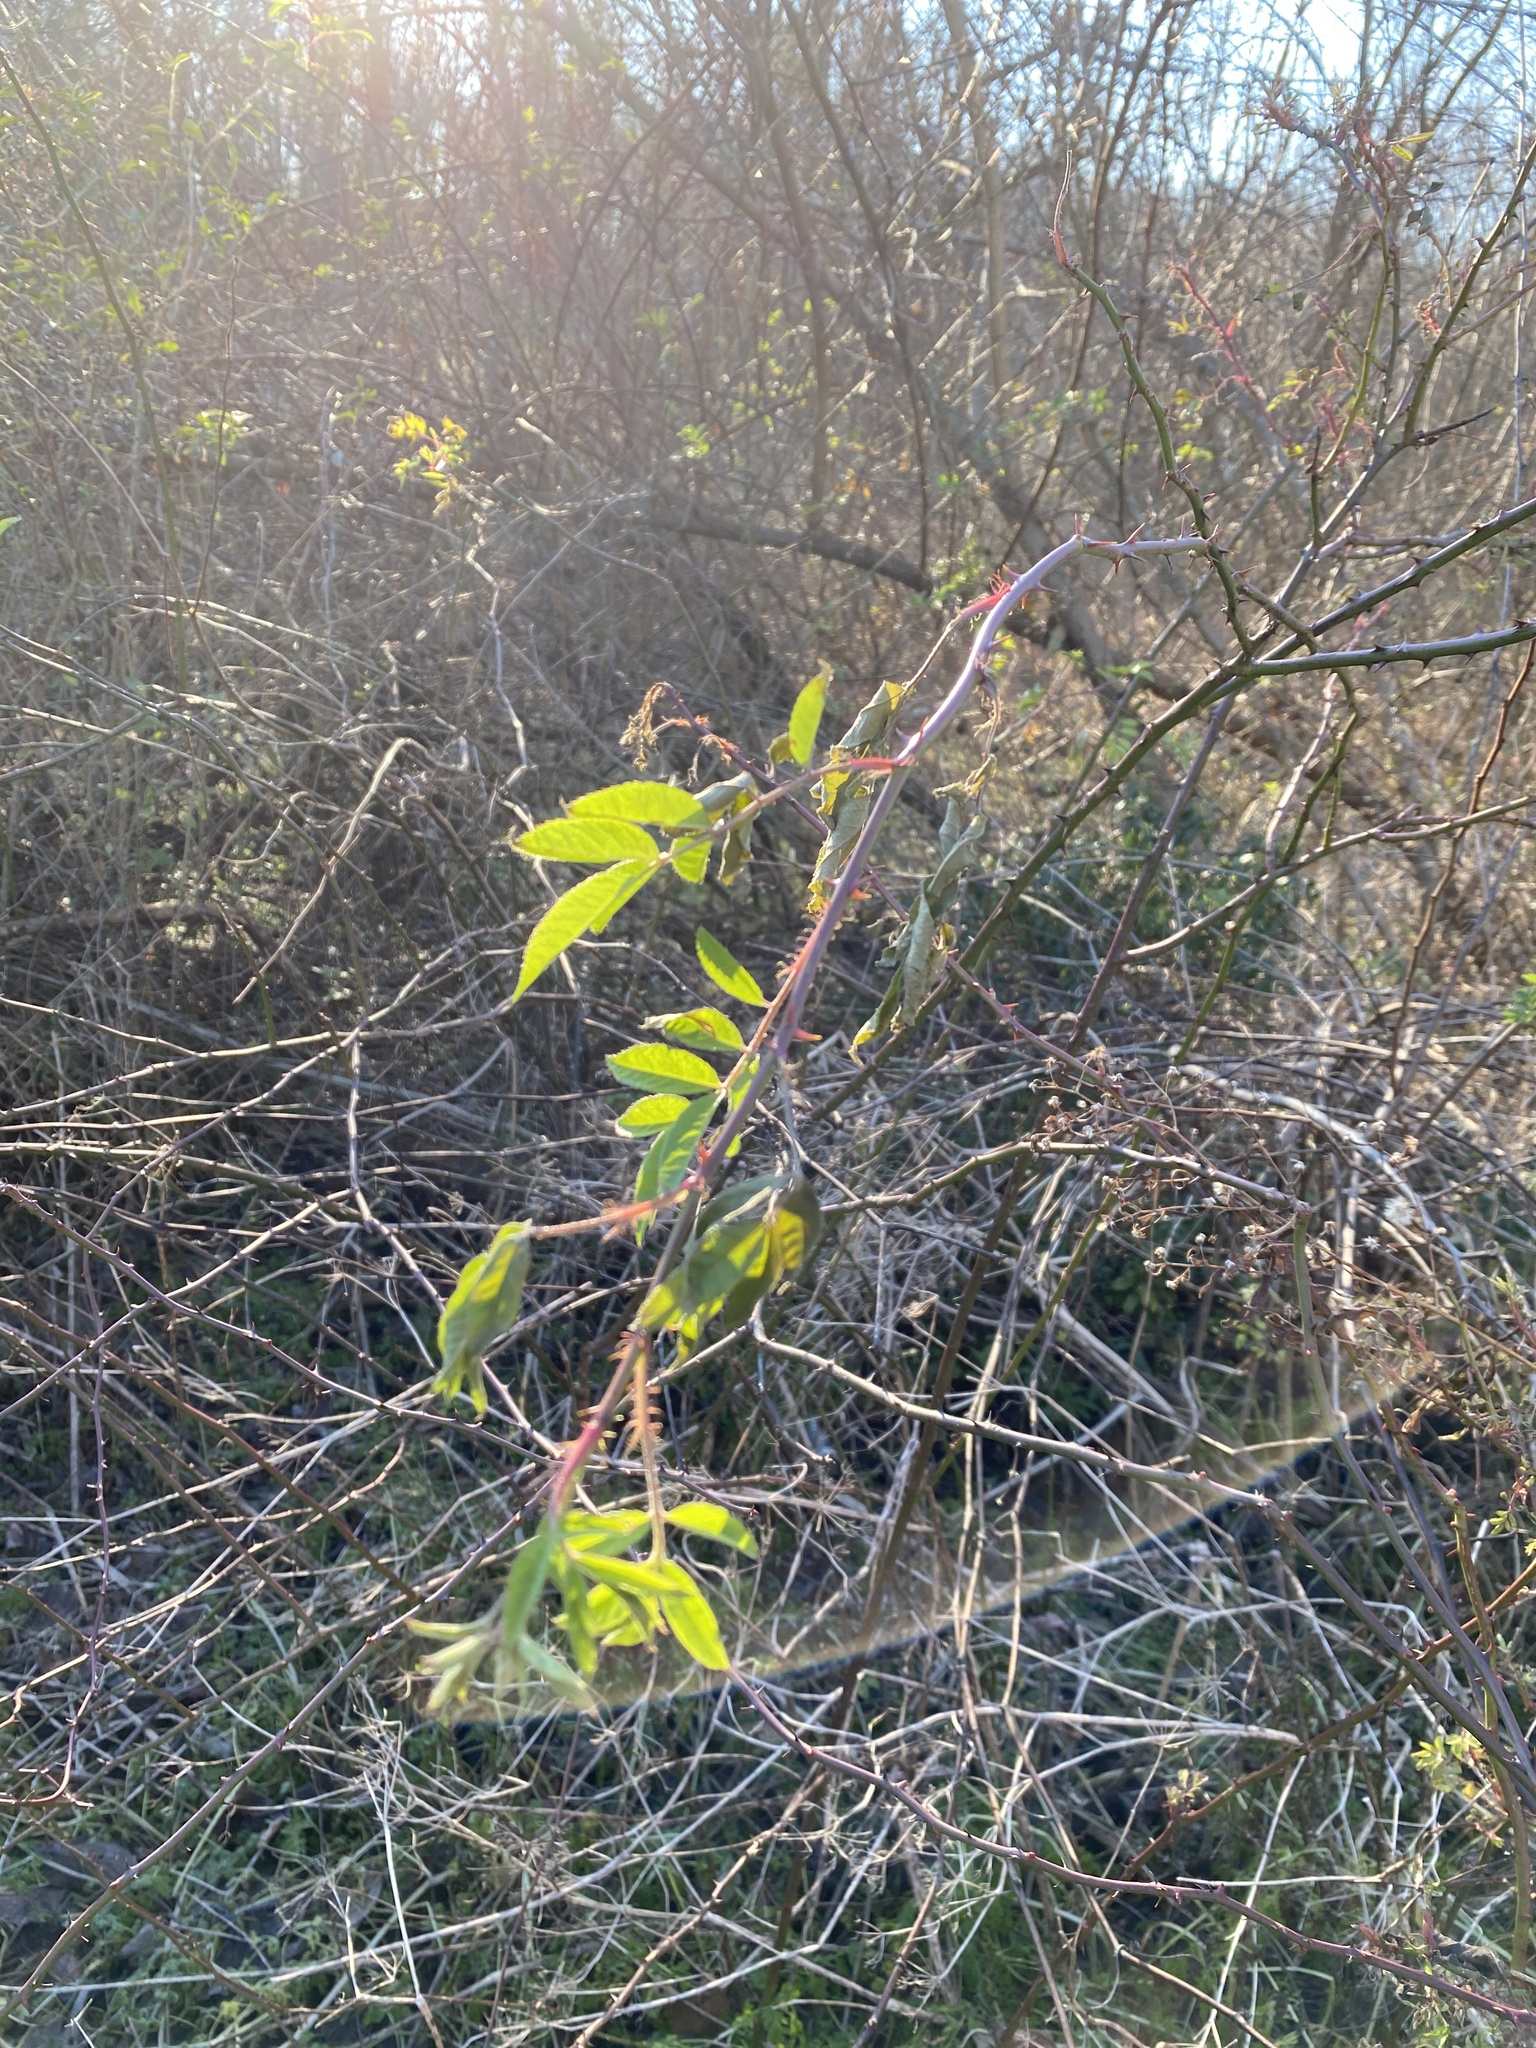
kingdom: Plantae
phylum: Tracheophyta
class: Magnoliopsida
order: Rosales
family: Rosaceae
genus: Rosa
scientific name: Rosa multiflora
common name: Multiflora rose
